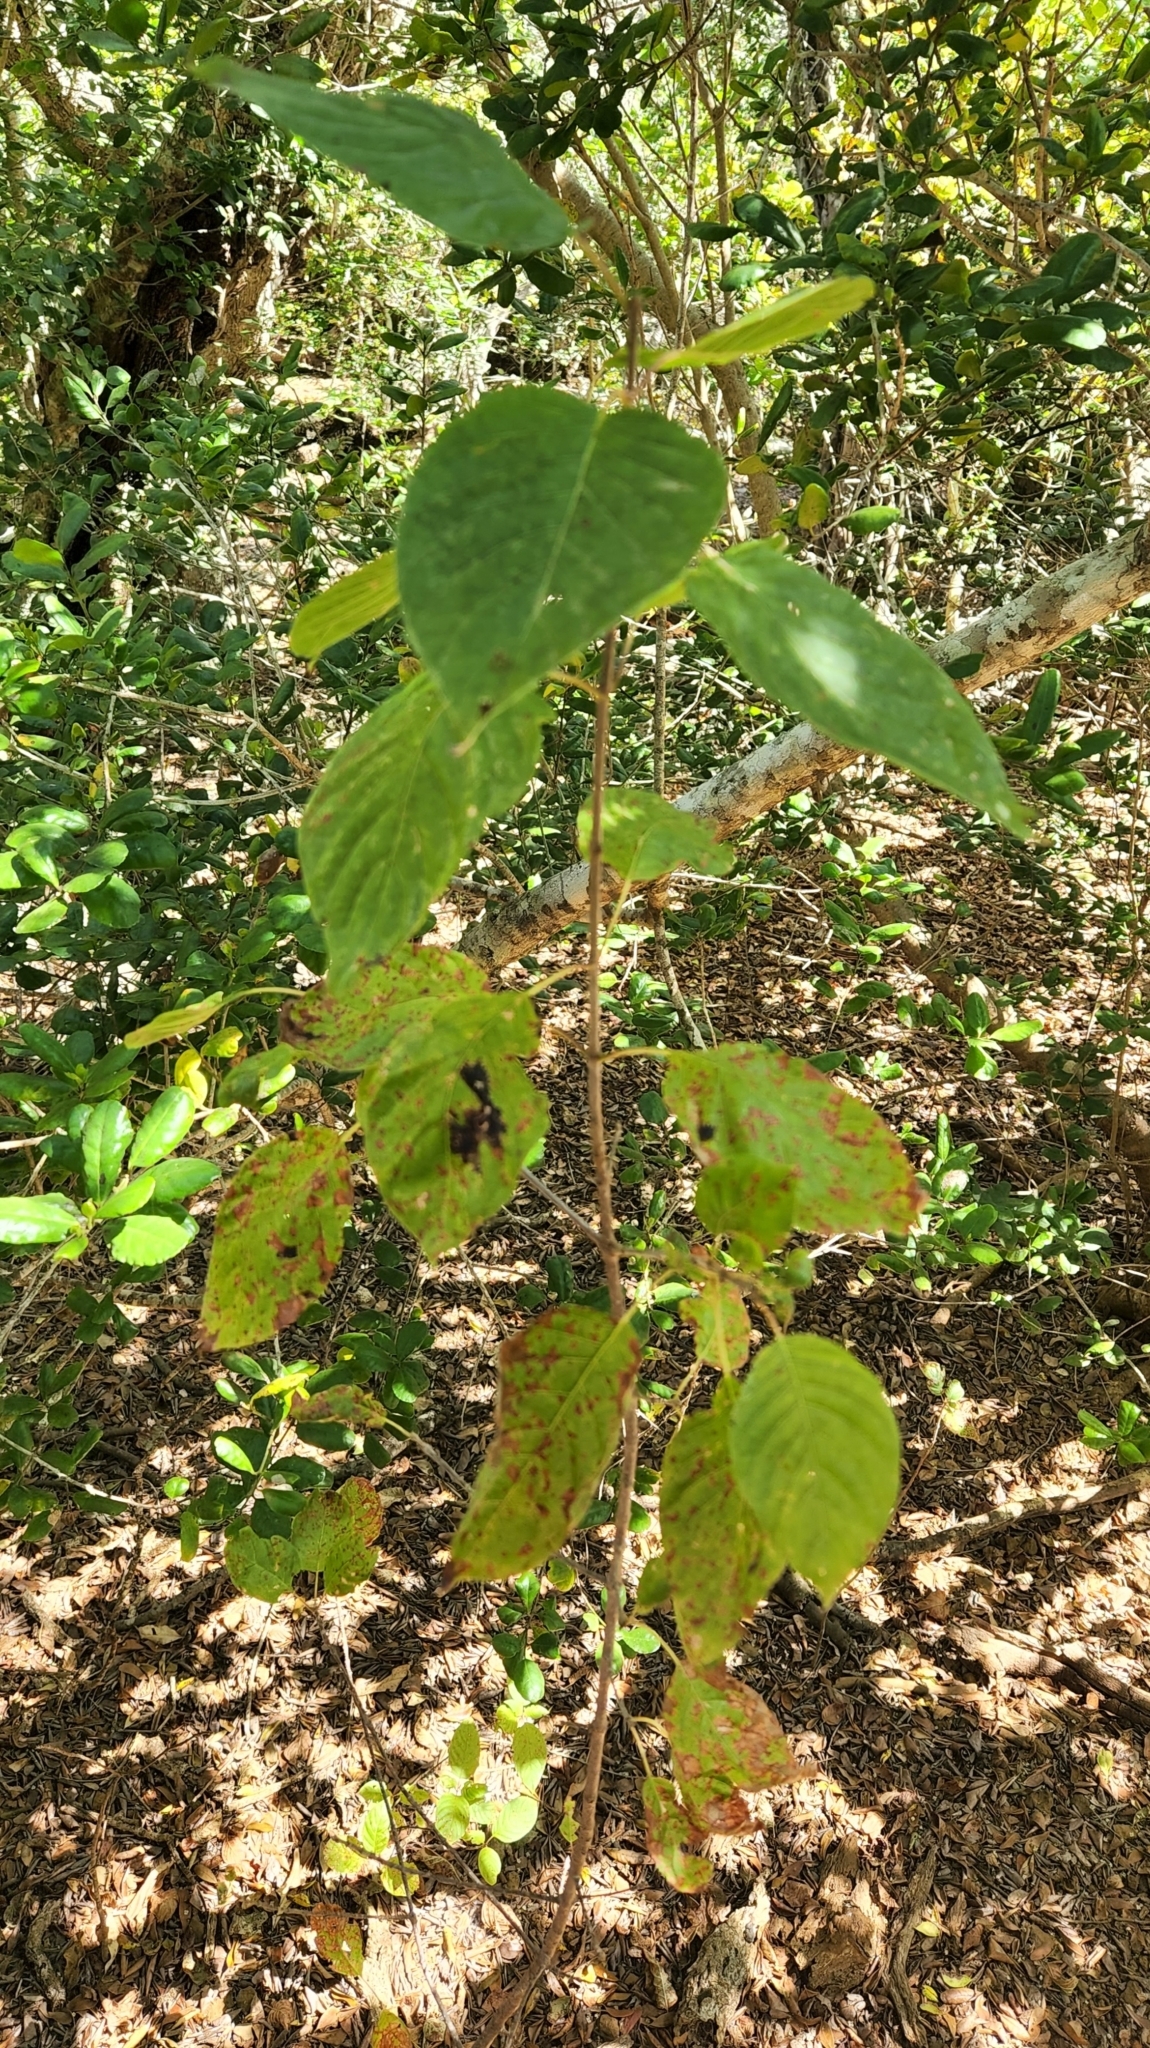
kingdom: Plantae
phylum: Tracheophyta
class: Magnoliopsida
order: Gentianales
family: Rubiaceae
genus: Guettarda
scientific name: Guettarda insularis
